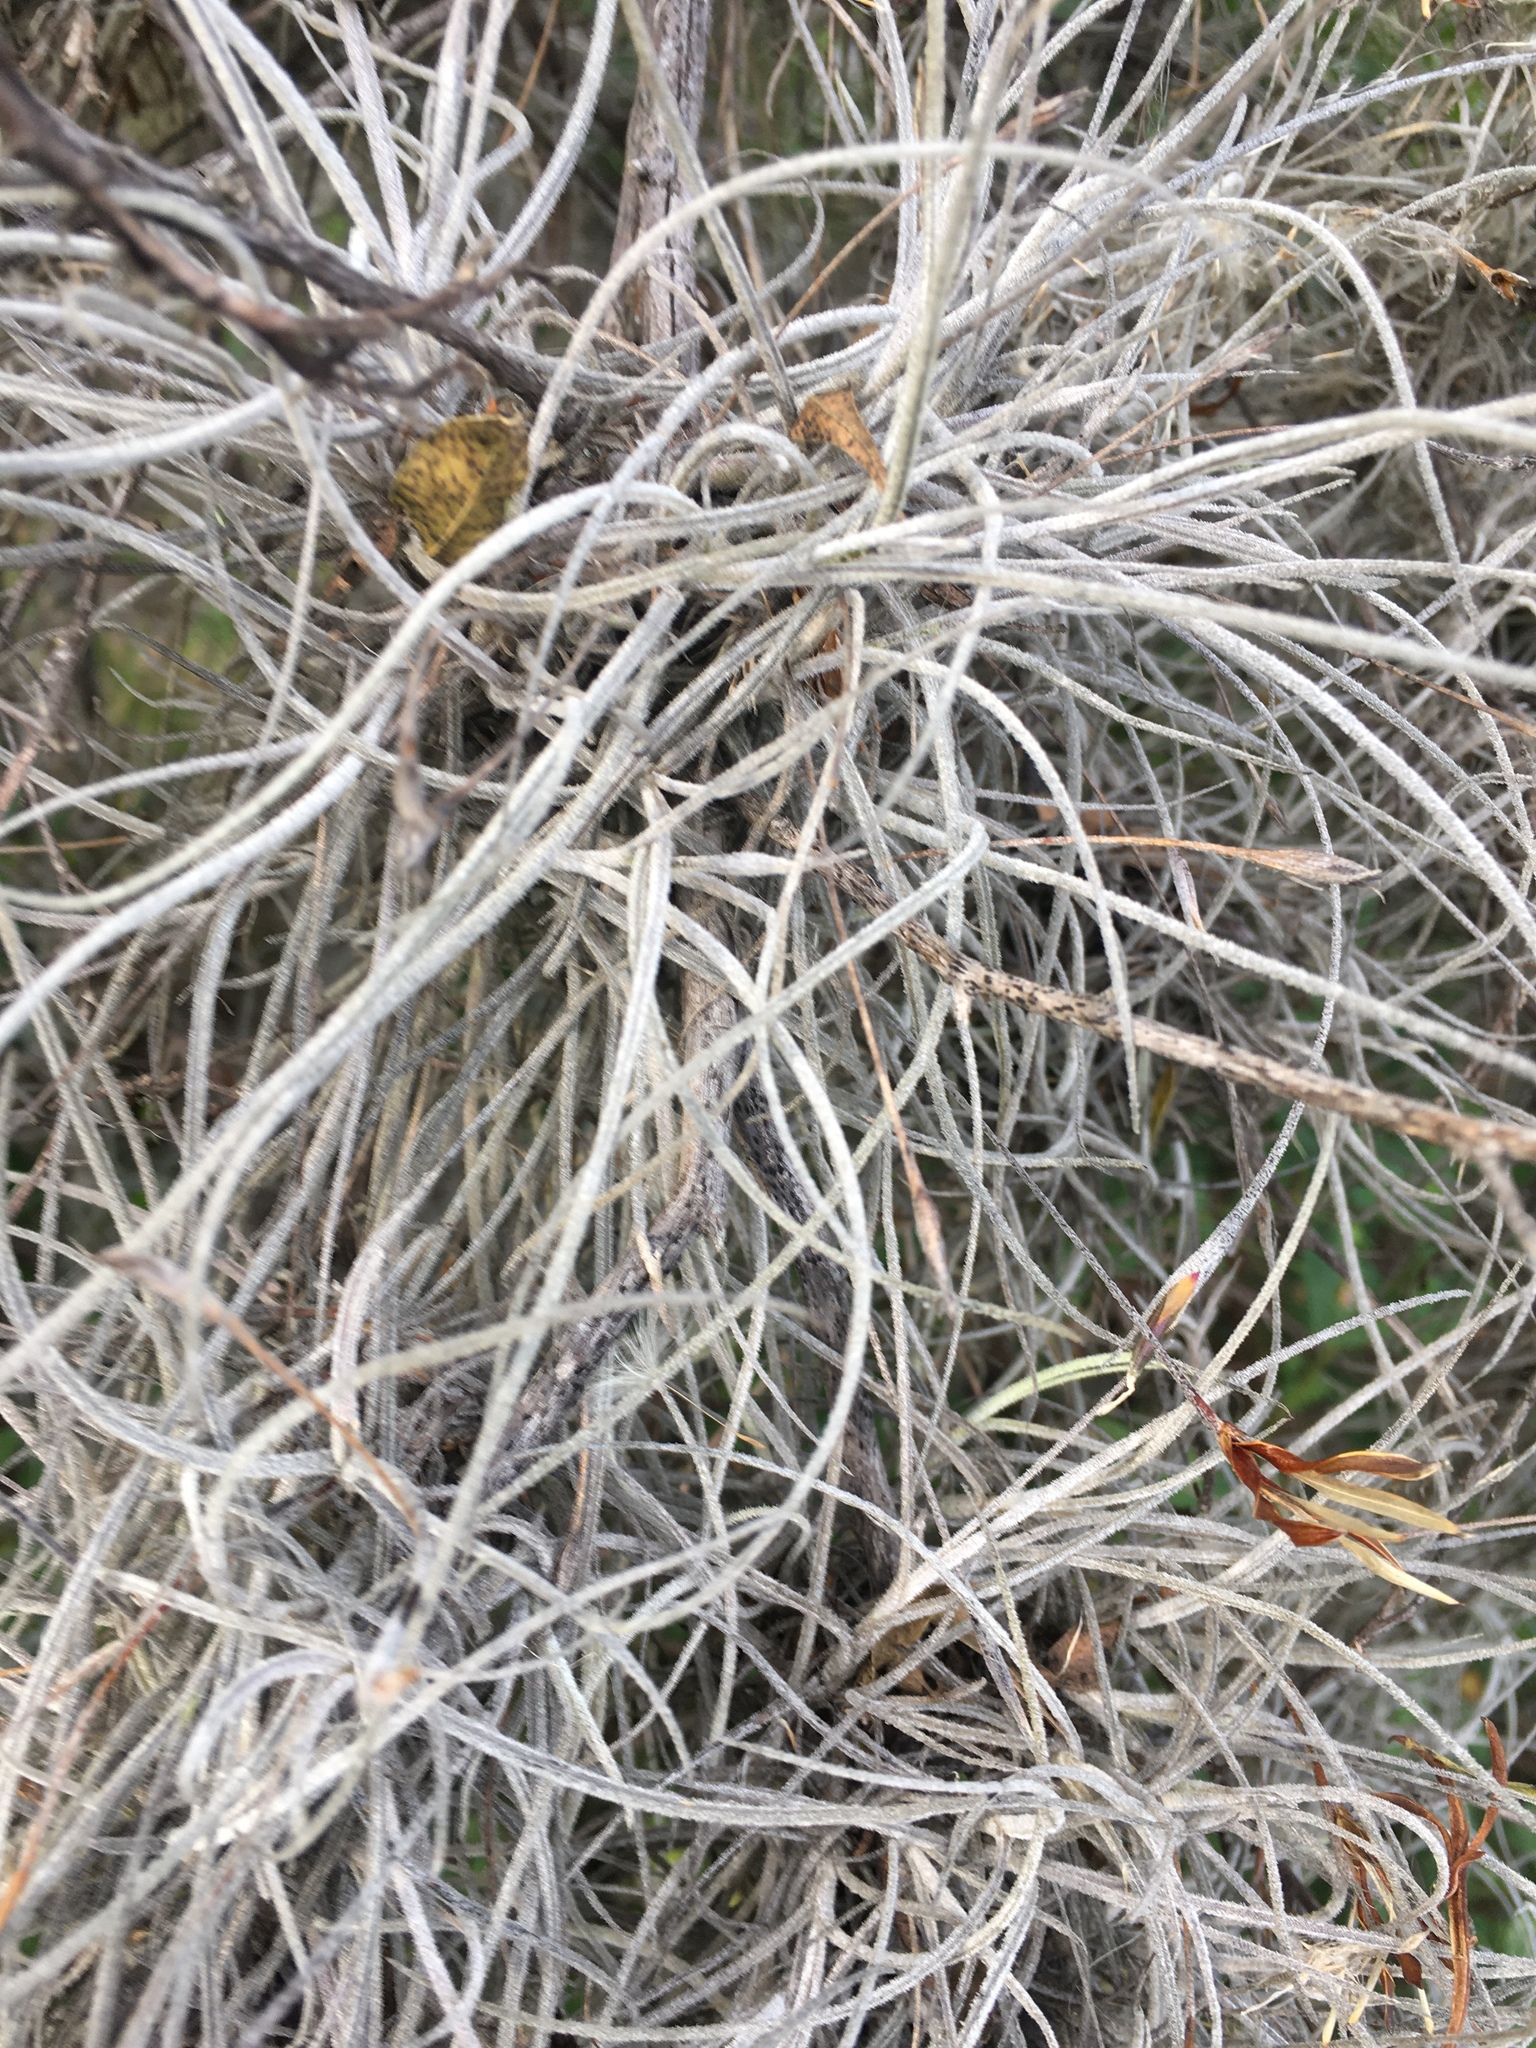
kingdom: Plantae
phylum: Tracheophyta
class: Liliopsida
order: Poales
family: Bromeliaceae
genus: Tillandsia
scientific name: Tillandsia recurvata
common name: Small ballmoss
